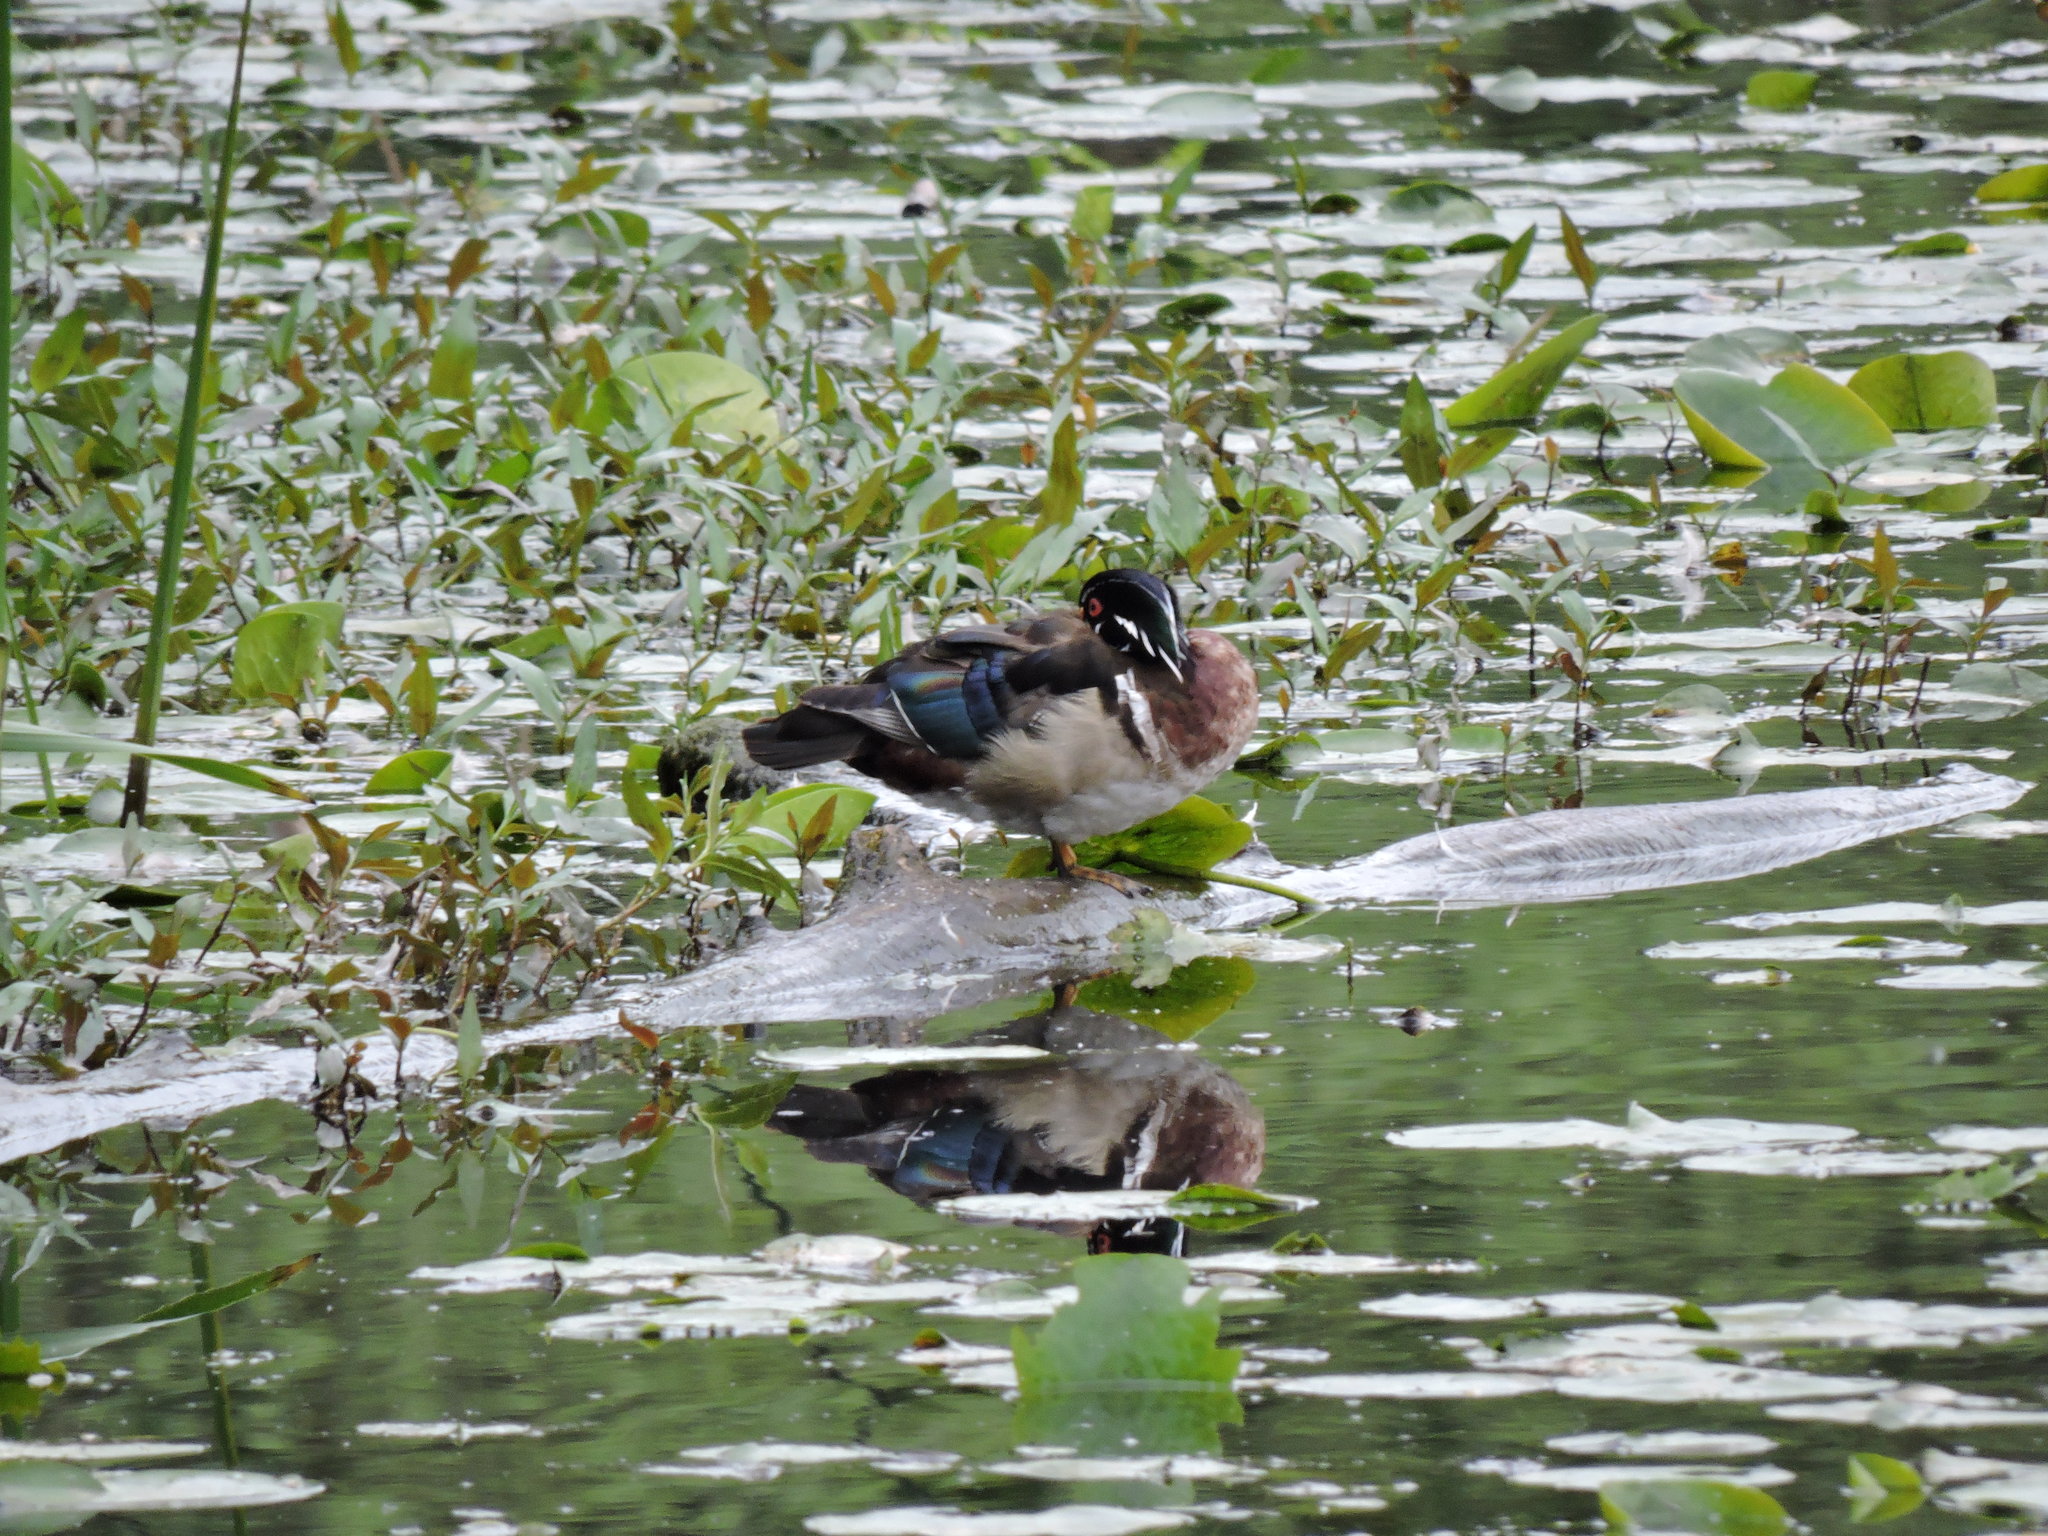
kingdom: Animalia
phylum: Chordata
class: Aves
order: Anseriformes
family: Anatidae
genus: Aix
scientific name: Aix sponsa
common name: Wood duck
